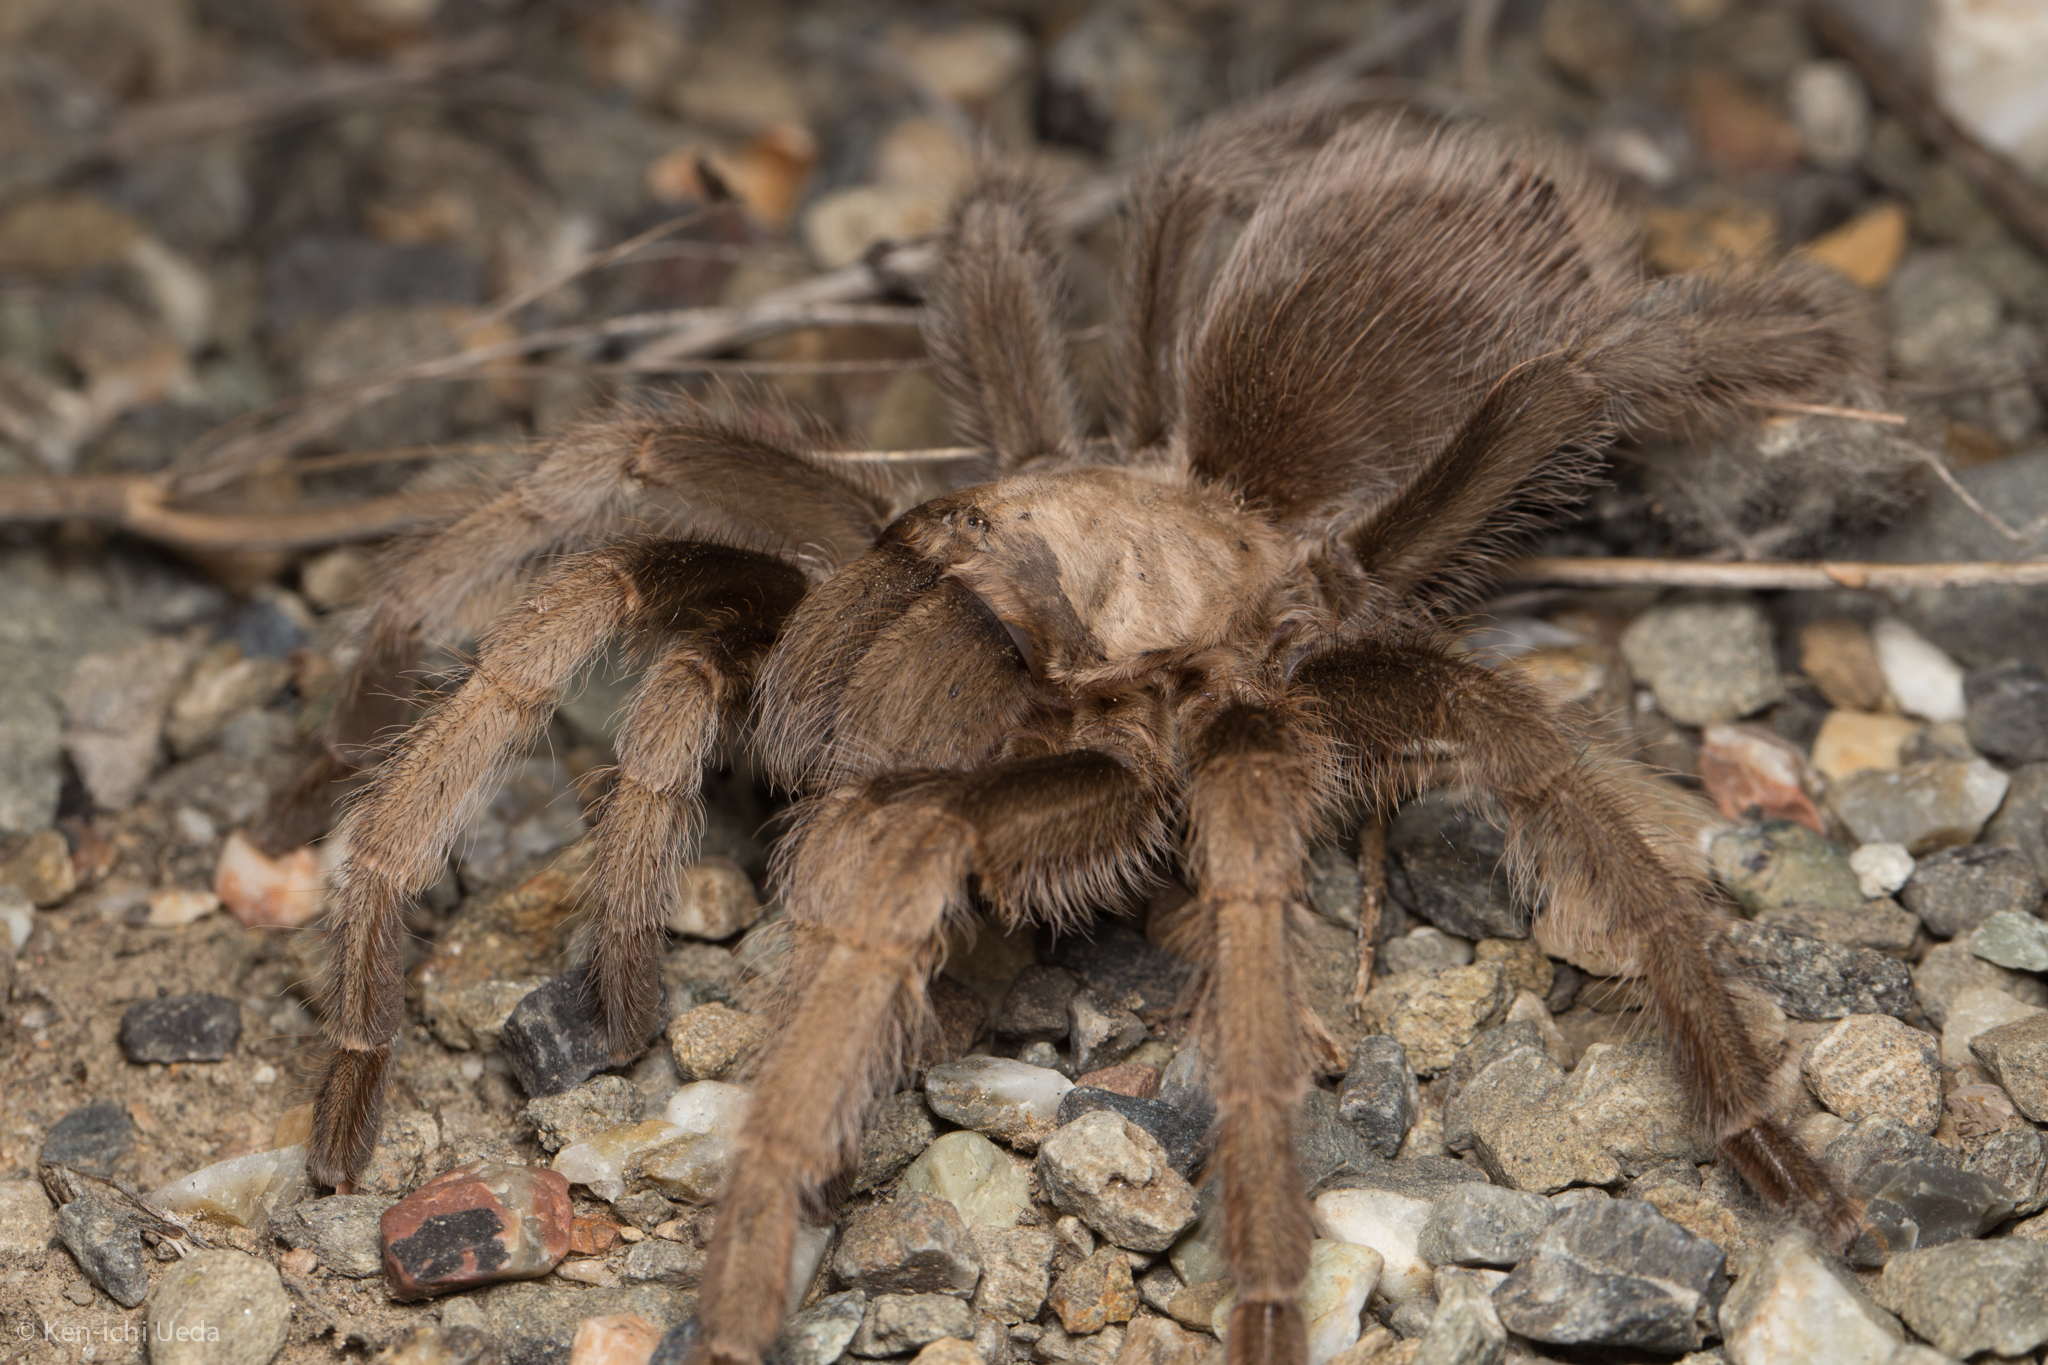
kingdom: Animalia
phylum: Arthropoda
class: Arachnida
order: Araneae
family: Theraphosidae
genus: Aphonopelma
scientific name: Aphonopelma iodius
